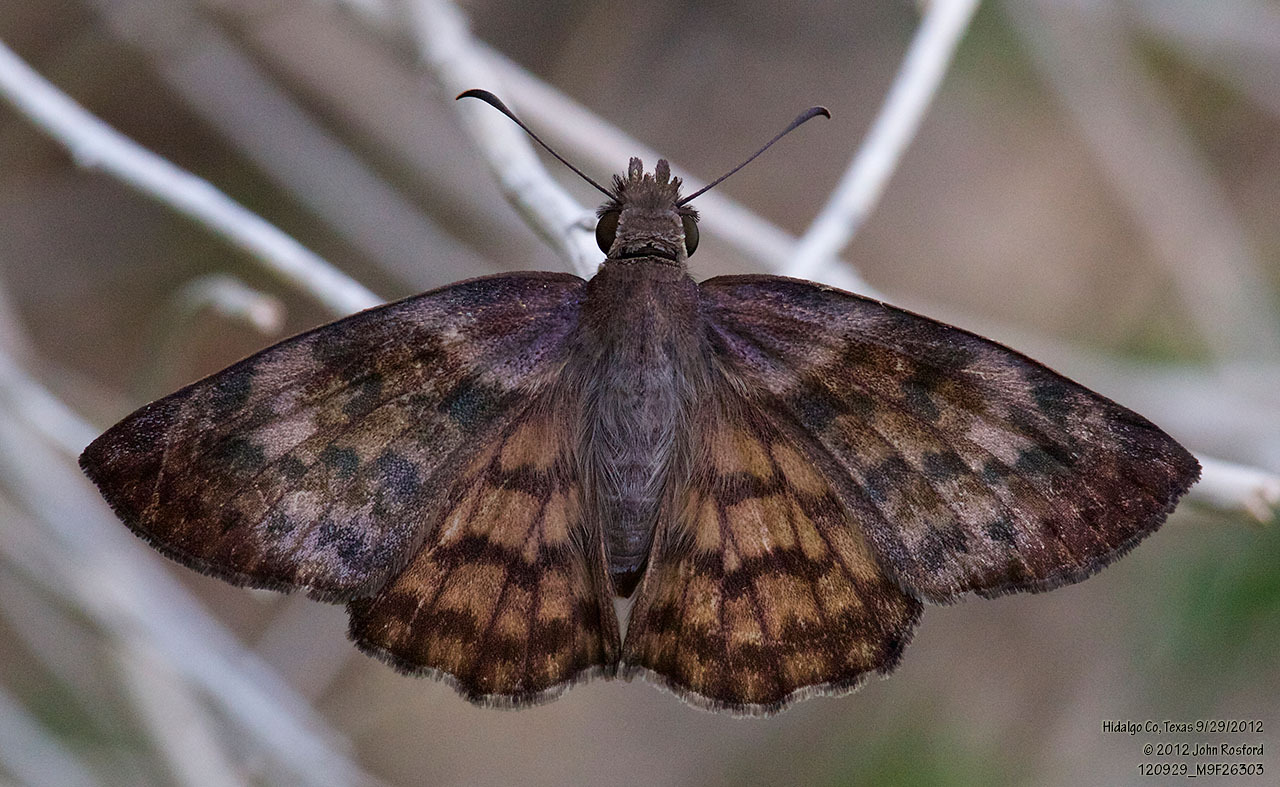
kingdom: Animalia
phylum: Arthropoda
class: Insecta
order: Lepidoptera
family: Hesperiidae
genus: Timochares
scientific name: Timochares ruptifasciata
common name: Brown-banded skipper
